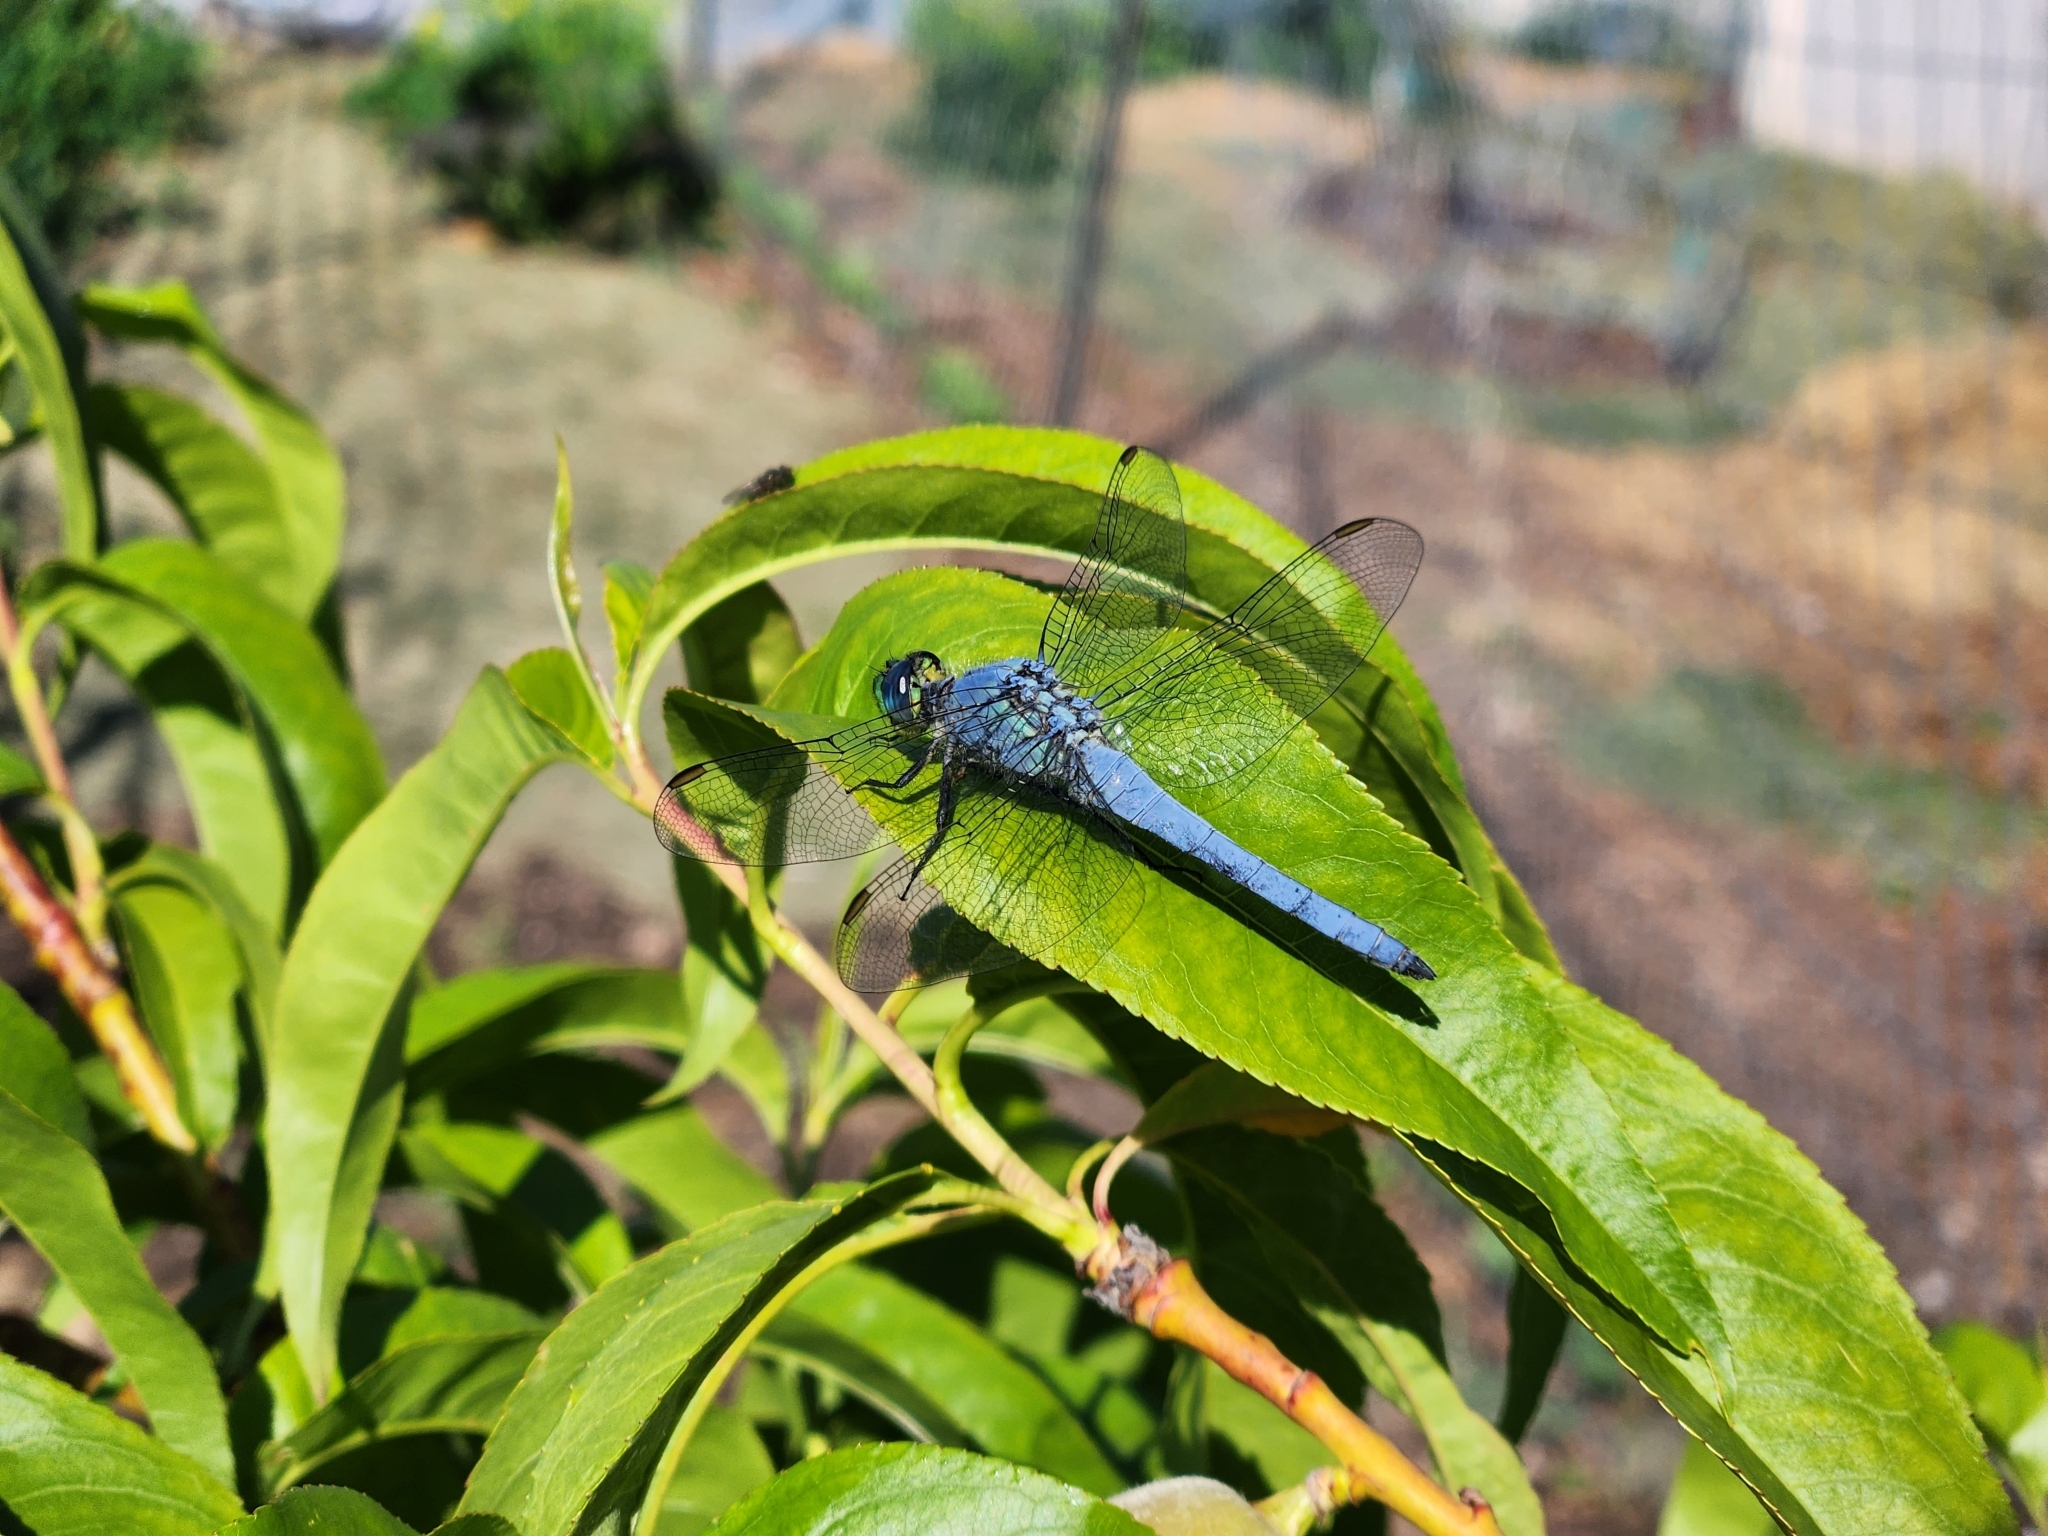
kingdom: Animalia
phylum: Arthropoda
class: Insecta
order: Odonata
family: Libellulidae
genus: Erythemis
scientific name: Erythemis collocata
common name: Western pondhawk
